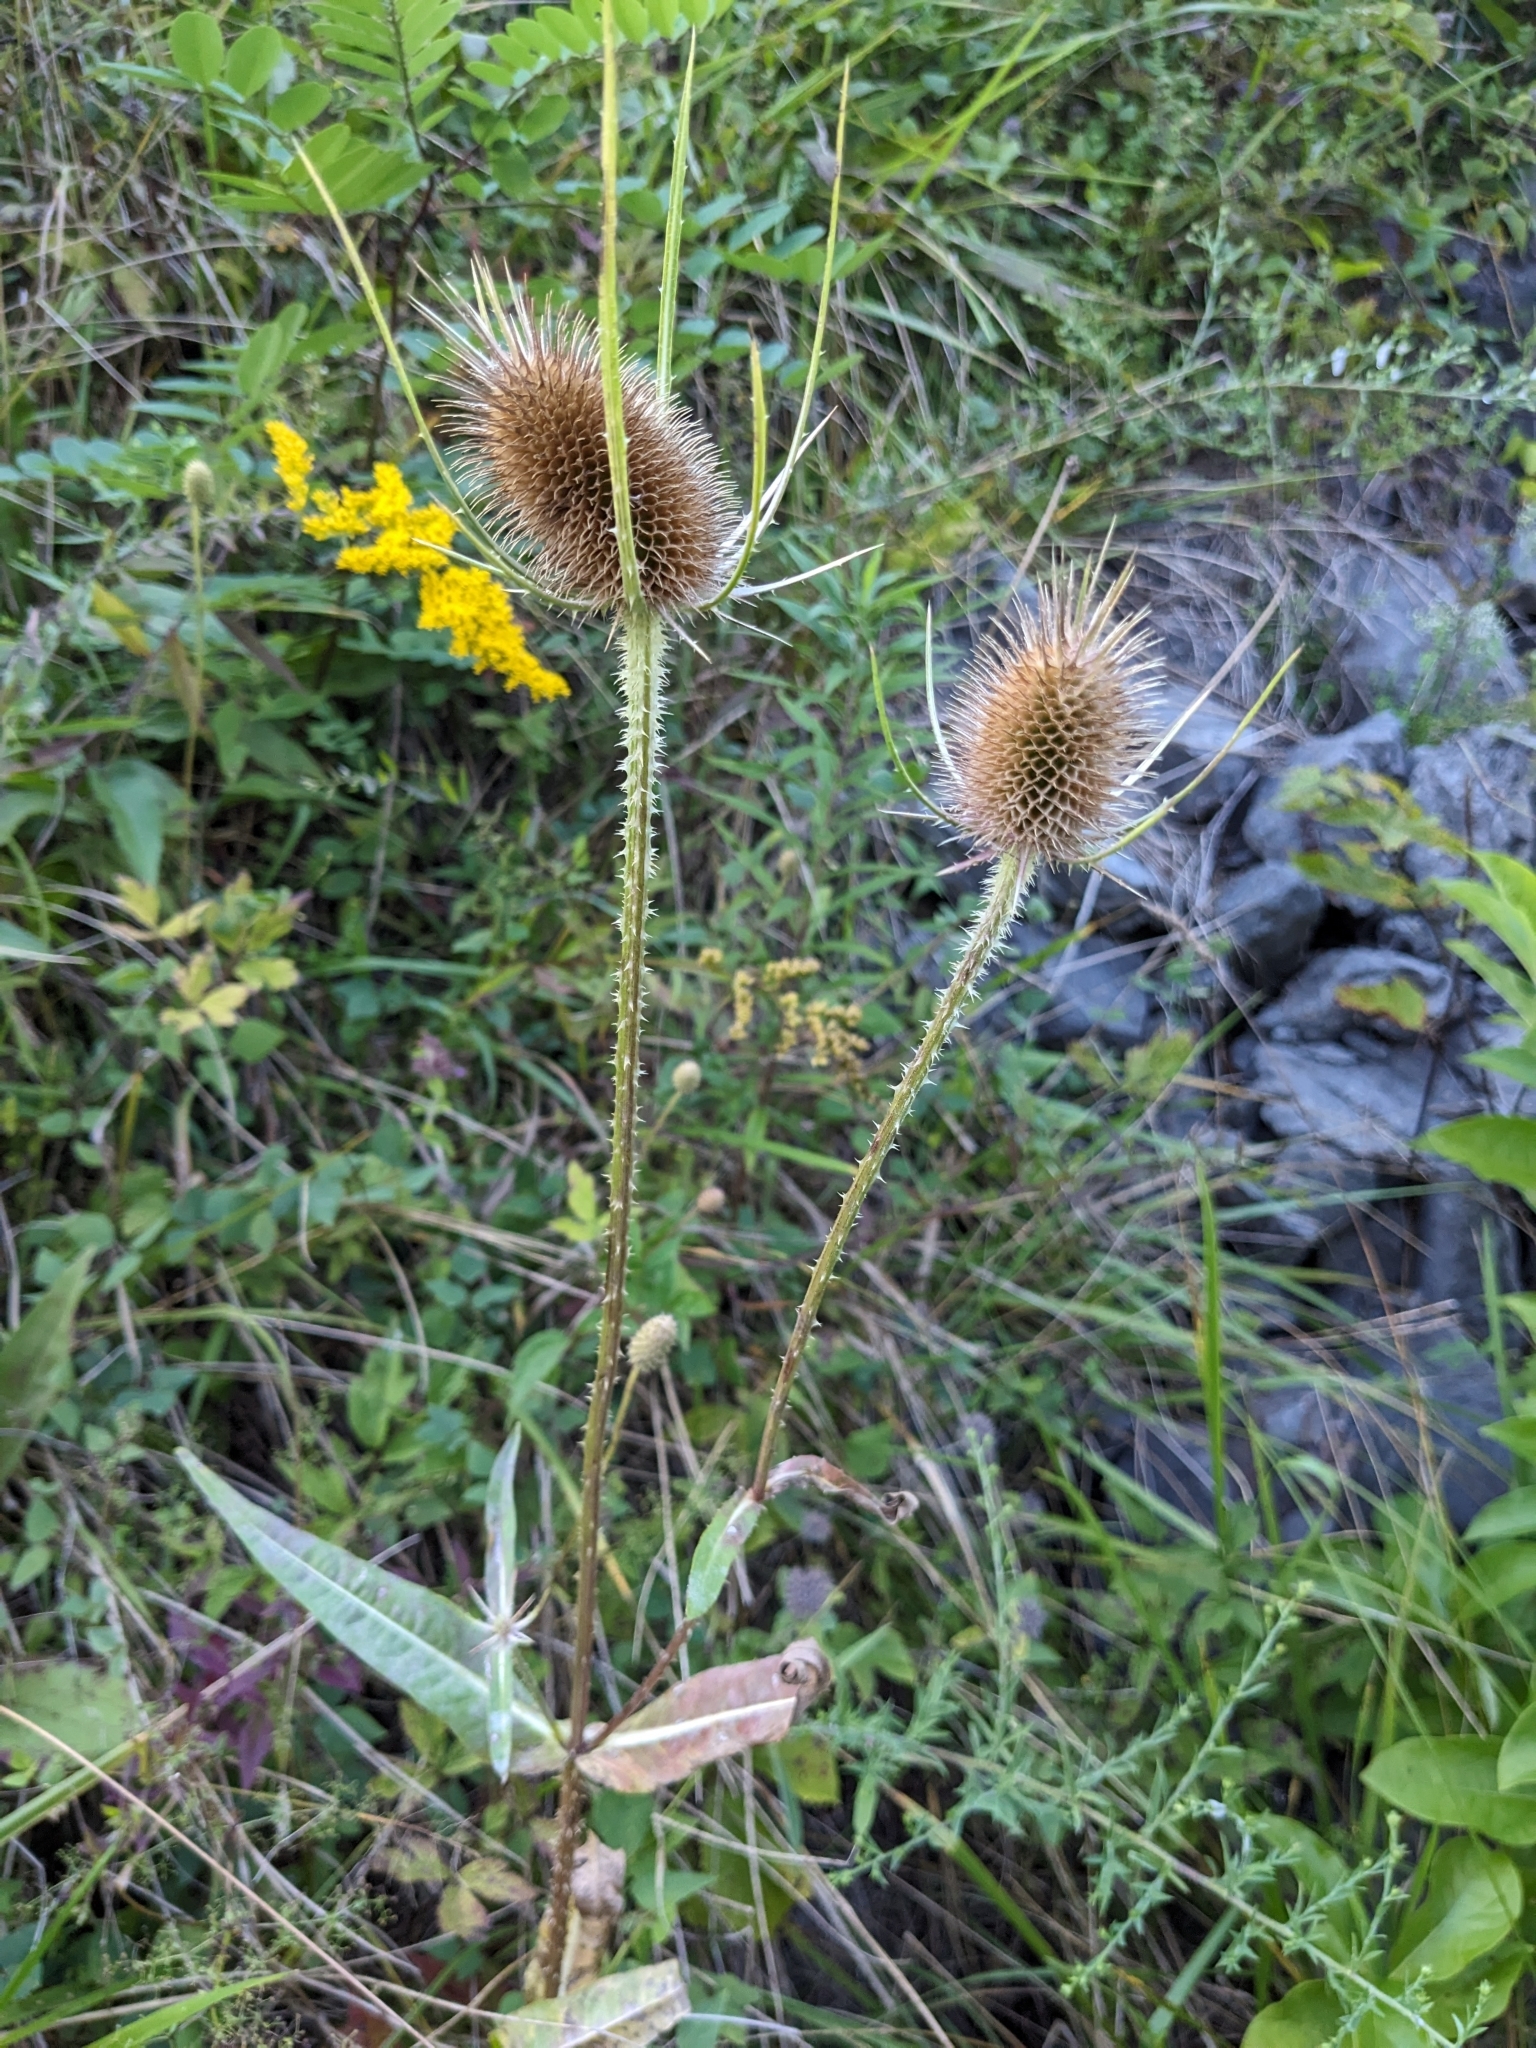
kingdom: Plantae
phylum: Tracheophyta
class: Magnoliopsida
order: Dipsacales
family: Caprifoliaceae
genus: Dipsacus
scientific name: Dipsacus fullonum
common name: Teasel
